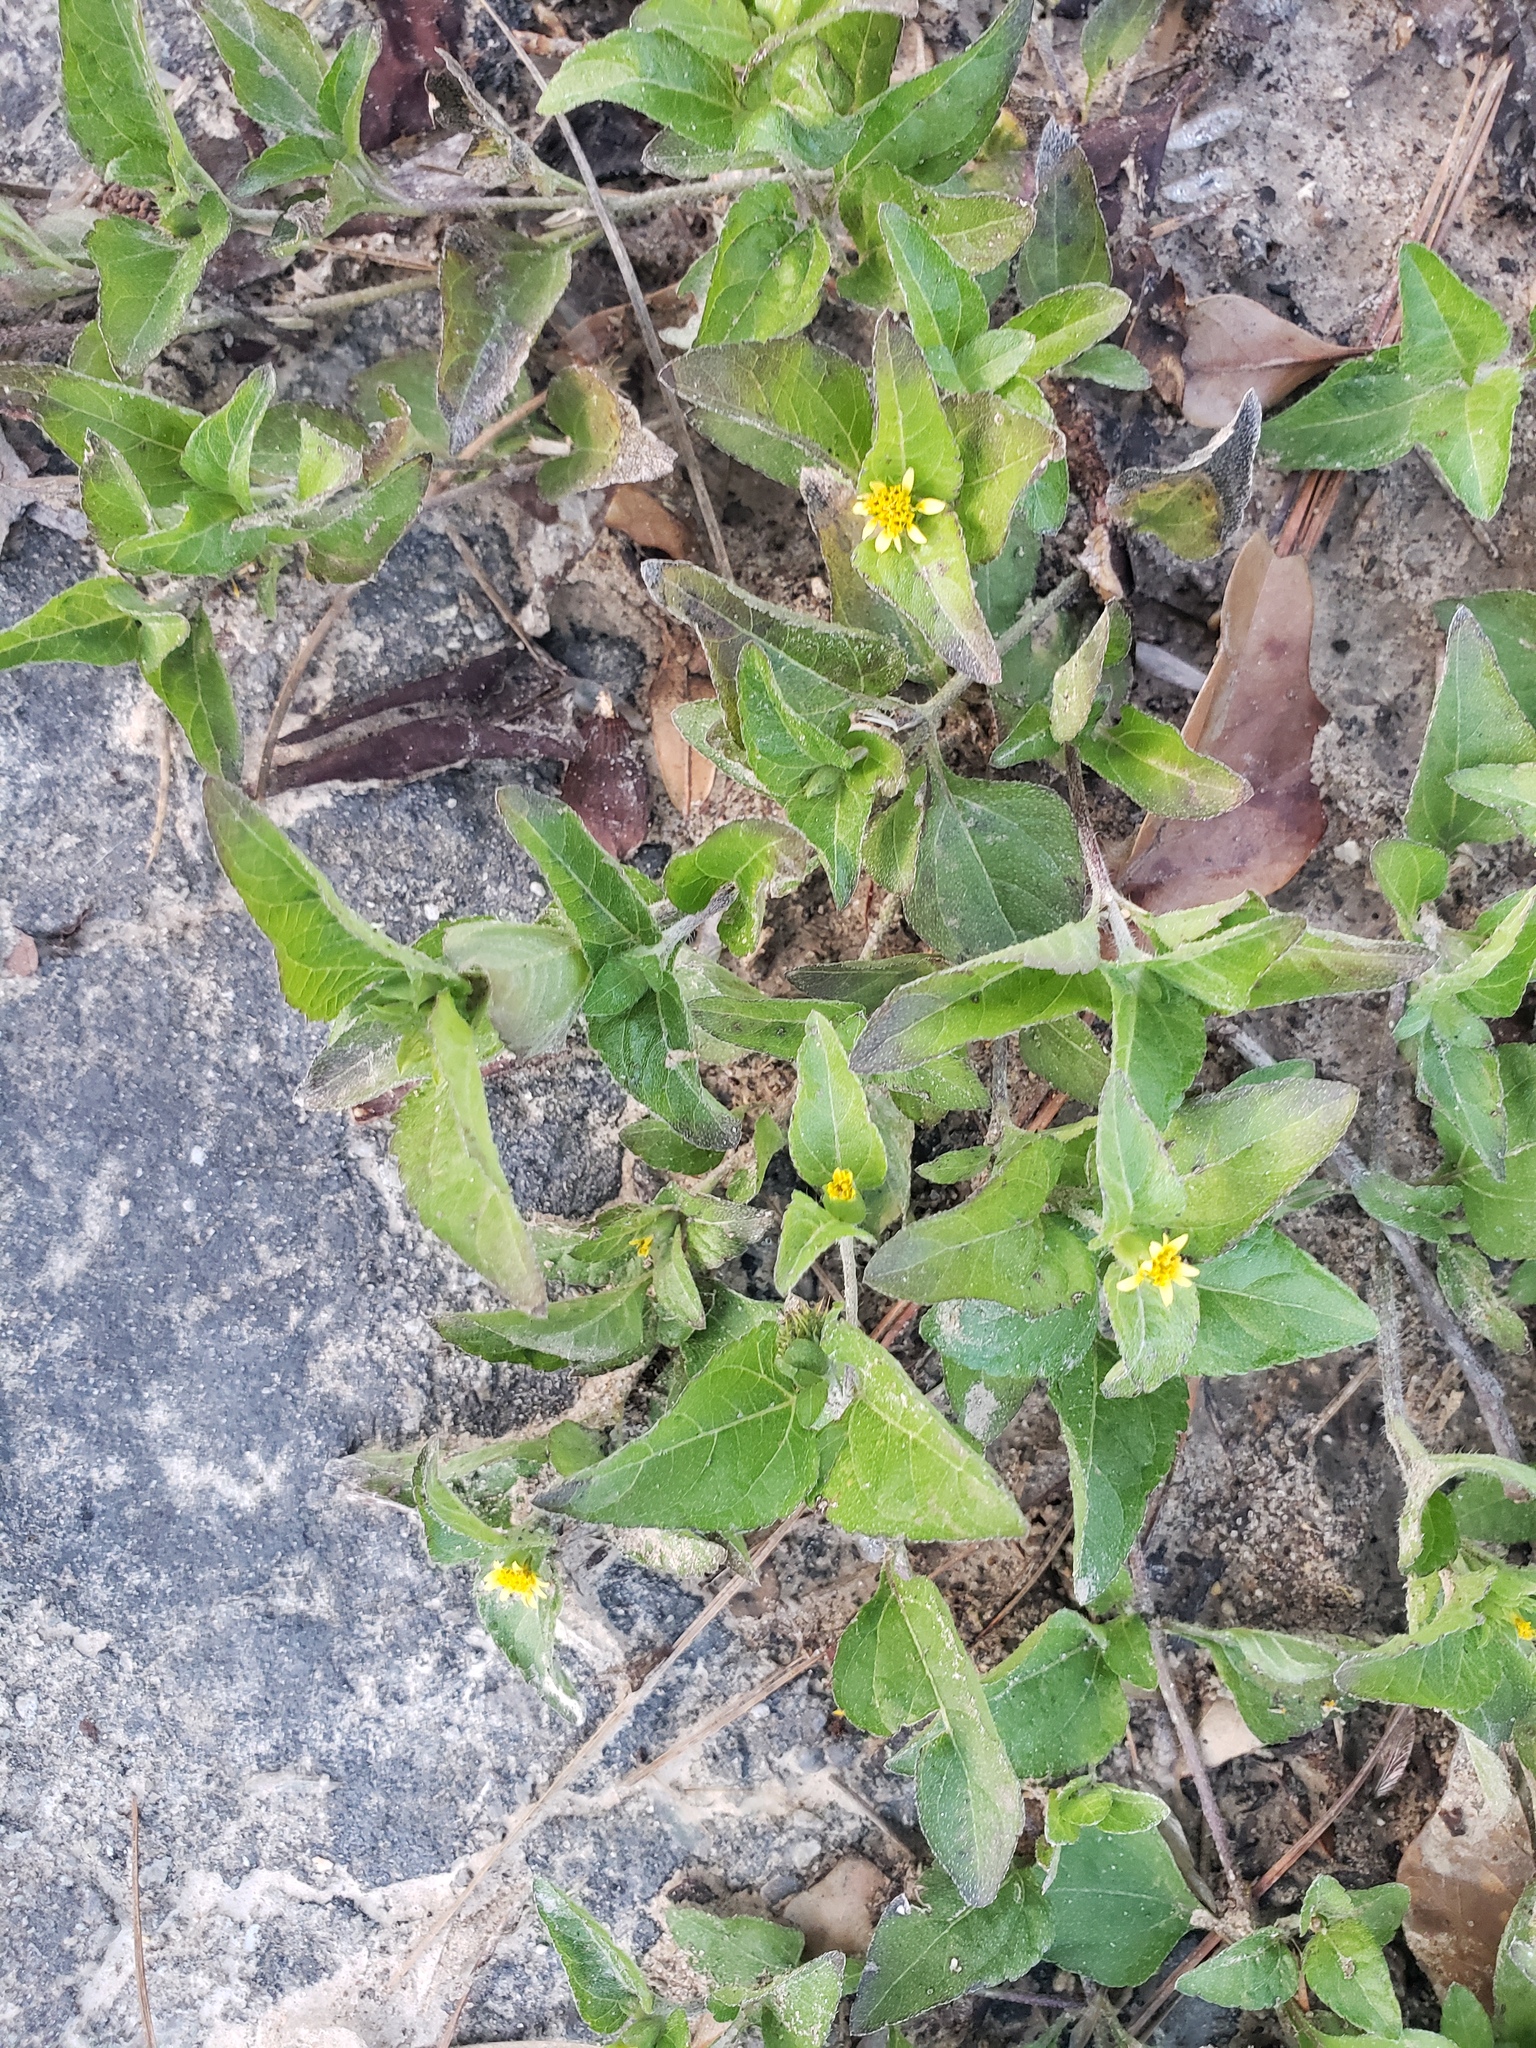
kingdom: Plantae
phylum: Tracheophyta
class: Magnoliopsida
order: Asterales
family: Asteraceae
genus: Calyptocarpus
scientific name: Calyptocarpus vialis
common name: Straggler daisy
